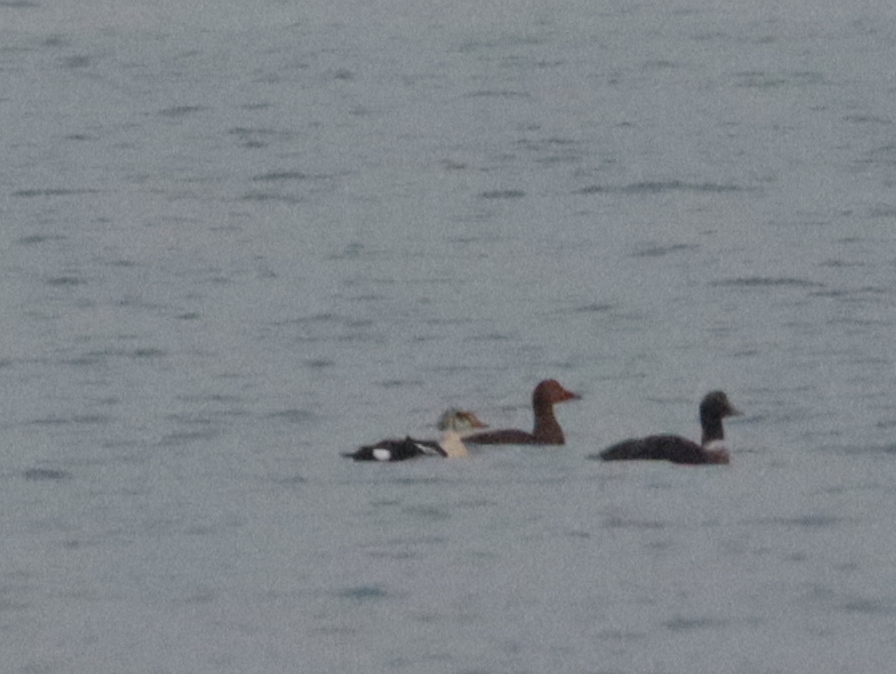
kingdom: Animalia
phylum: Chordata
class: Aves
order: Anseriformes
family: Anatidae
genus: Somateria
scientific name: Somateria spectabilis
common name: King eider
